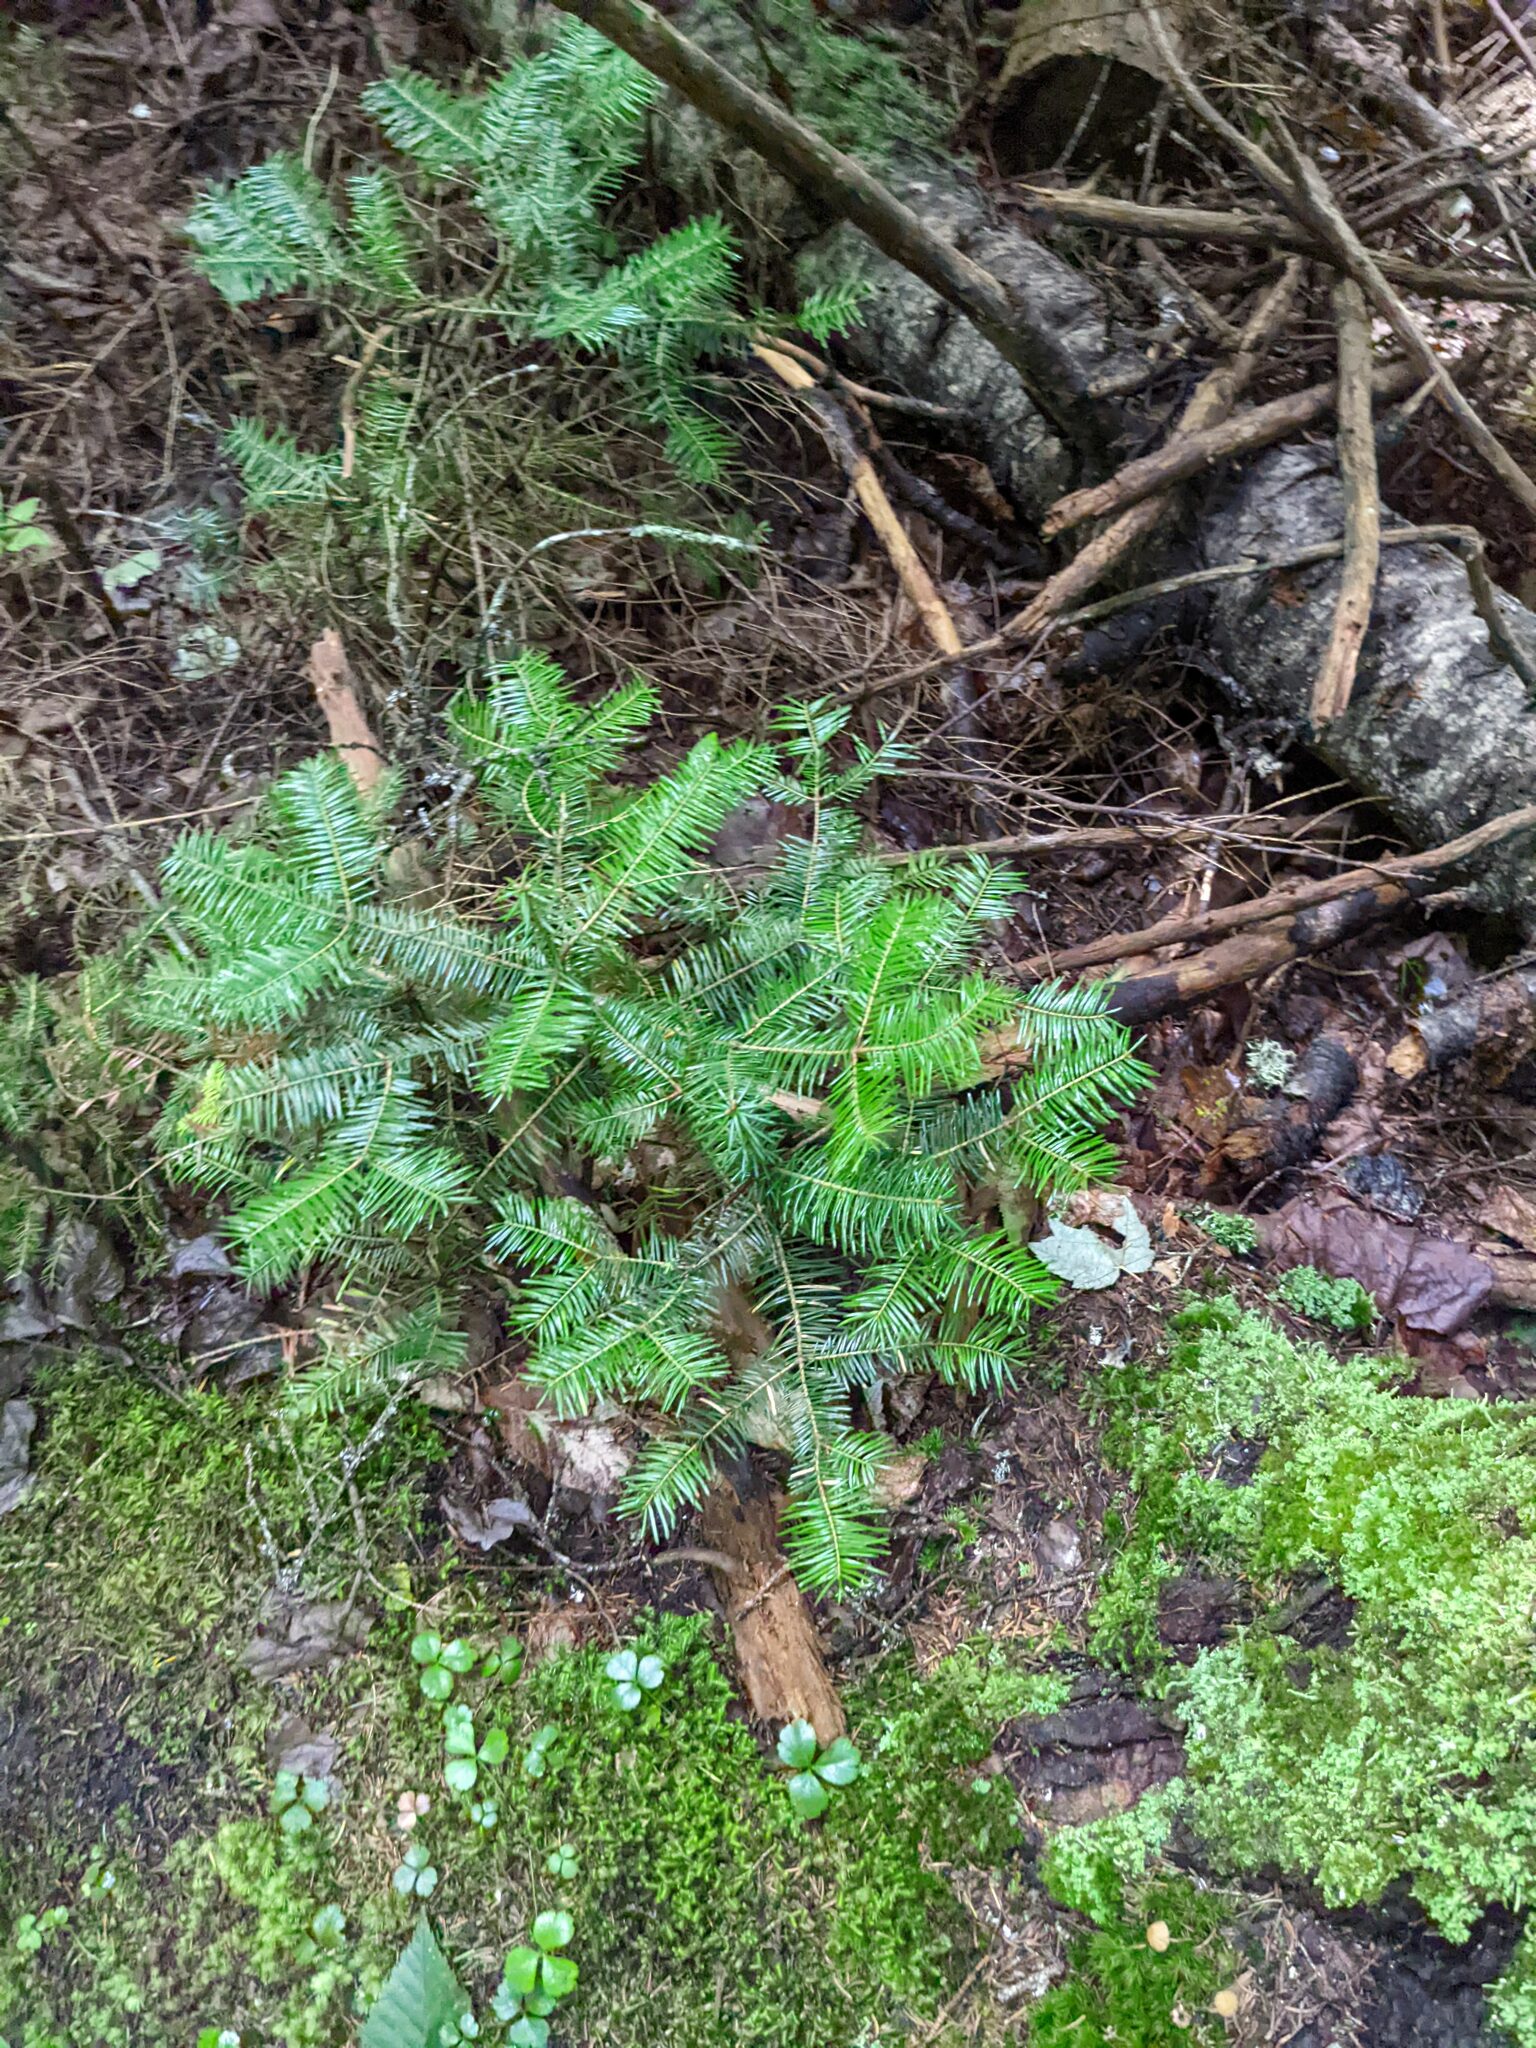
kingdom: Plantae
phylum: Tracheophyta
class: Pinopsida
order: Pinales
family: Pinaceae
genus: Abies
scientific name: Abies balsamea
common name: Balsam fir
